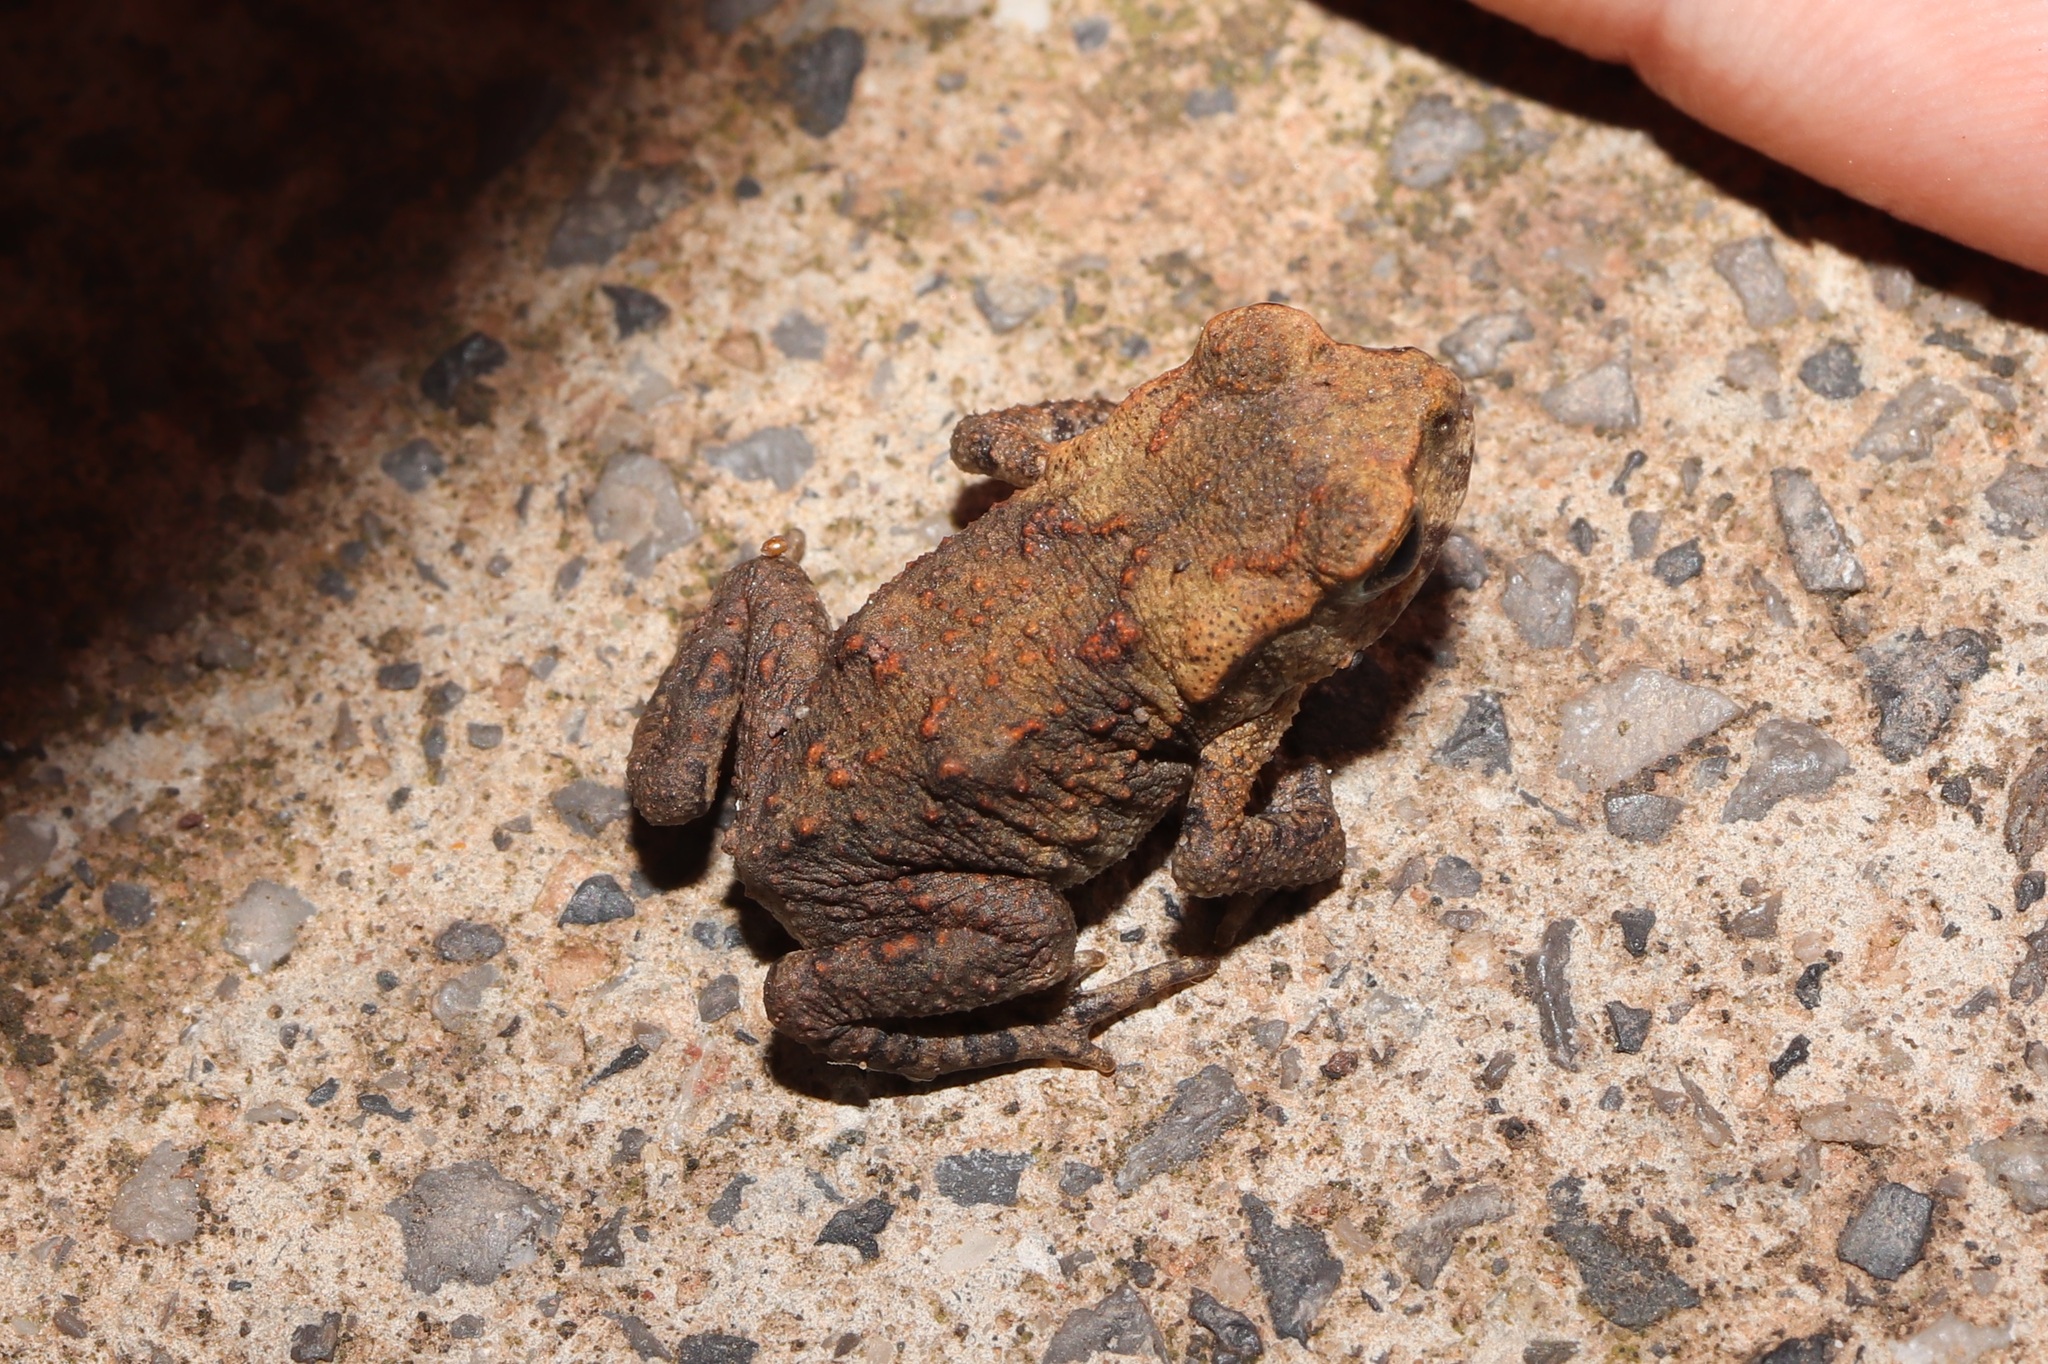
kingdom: Animalia
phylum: Chordata
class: Amphibia
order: Anura
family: Bufonidae
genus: Bufo
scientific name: Bufo gargarizans
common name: Asiatic toad
